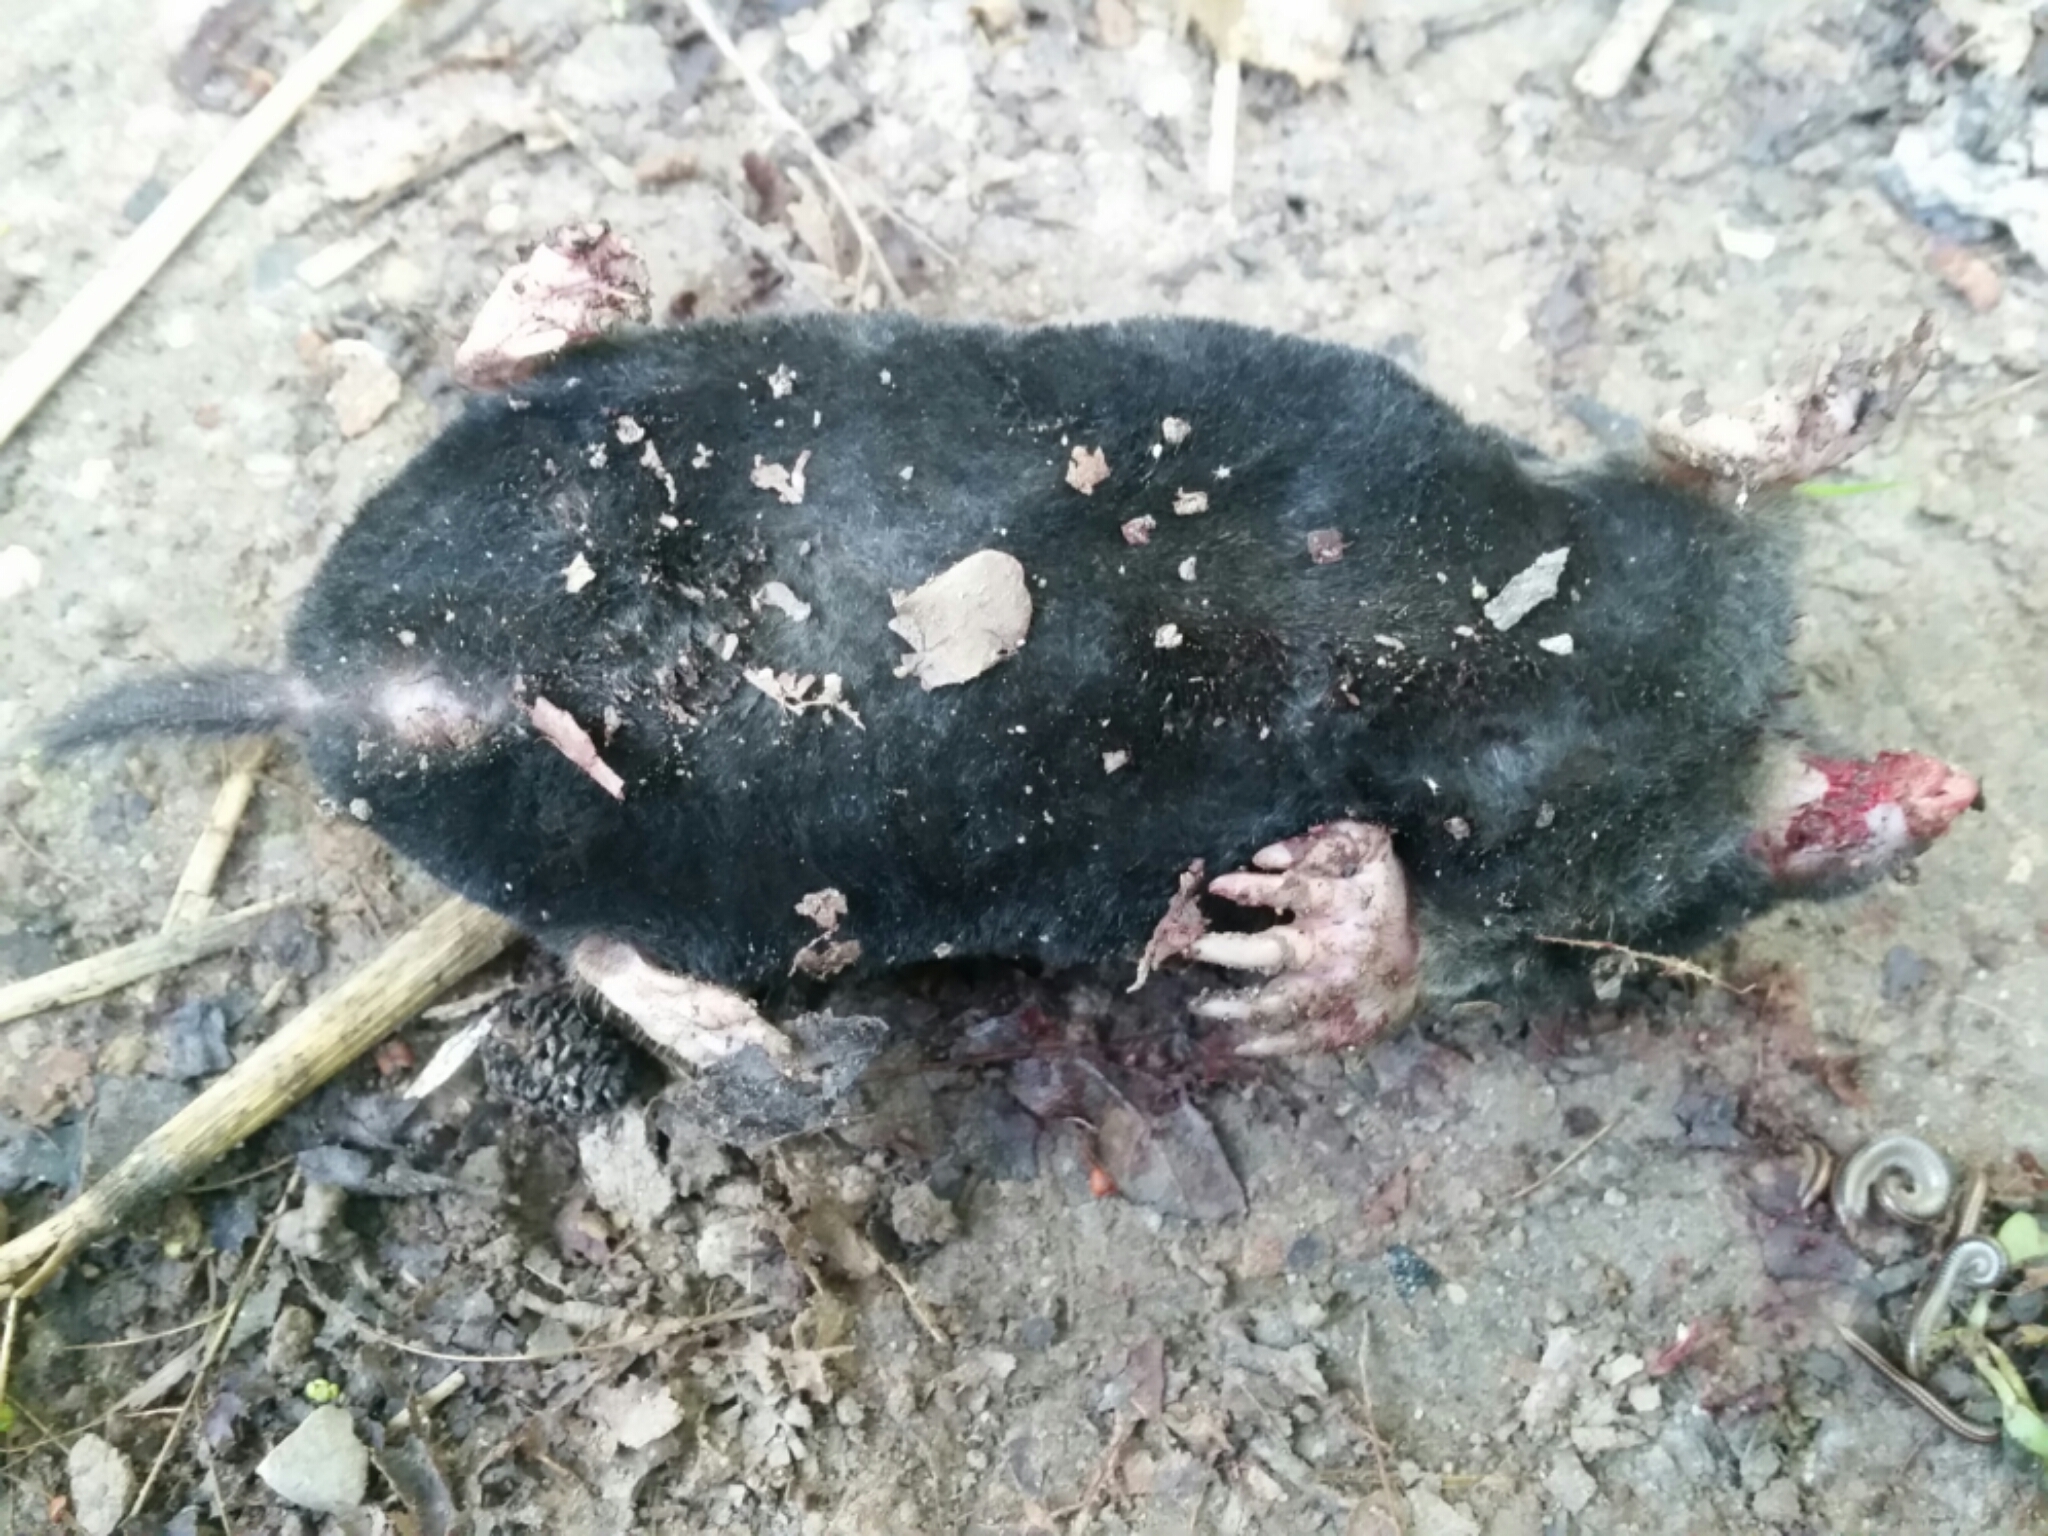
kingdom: Animalia
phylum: Chordata
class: Mammalia
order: Soricomorpha
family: Talpidae
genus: Talpa
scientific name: Talpa europaea
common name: European mole
